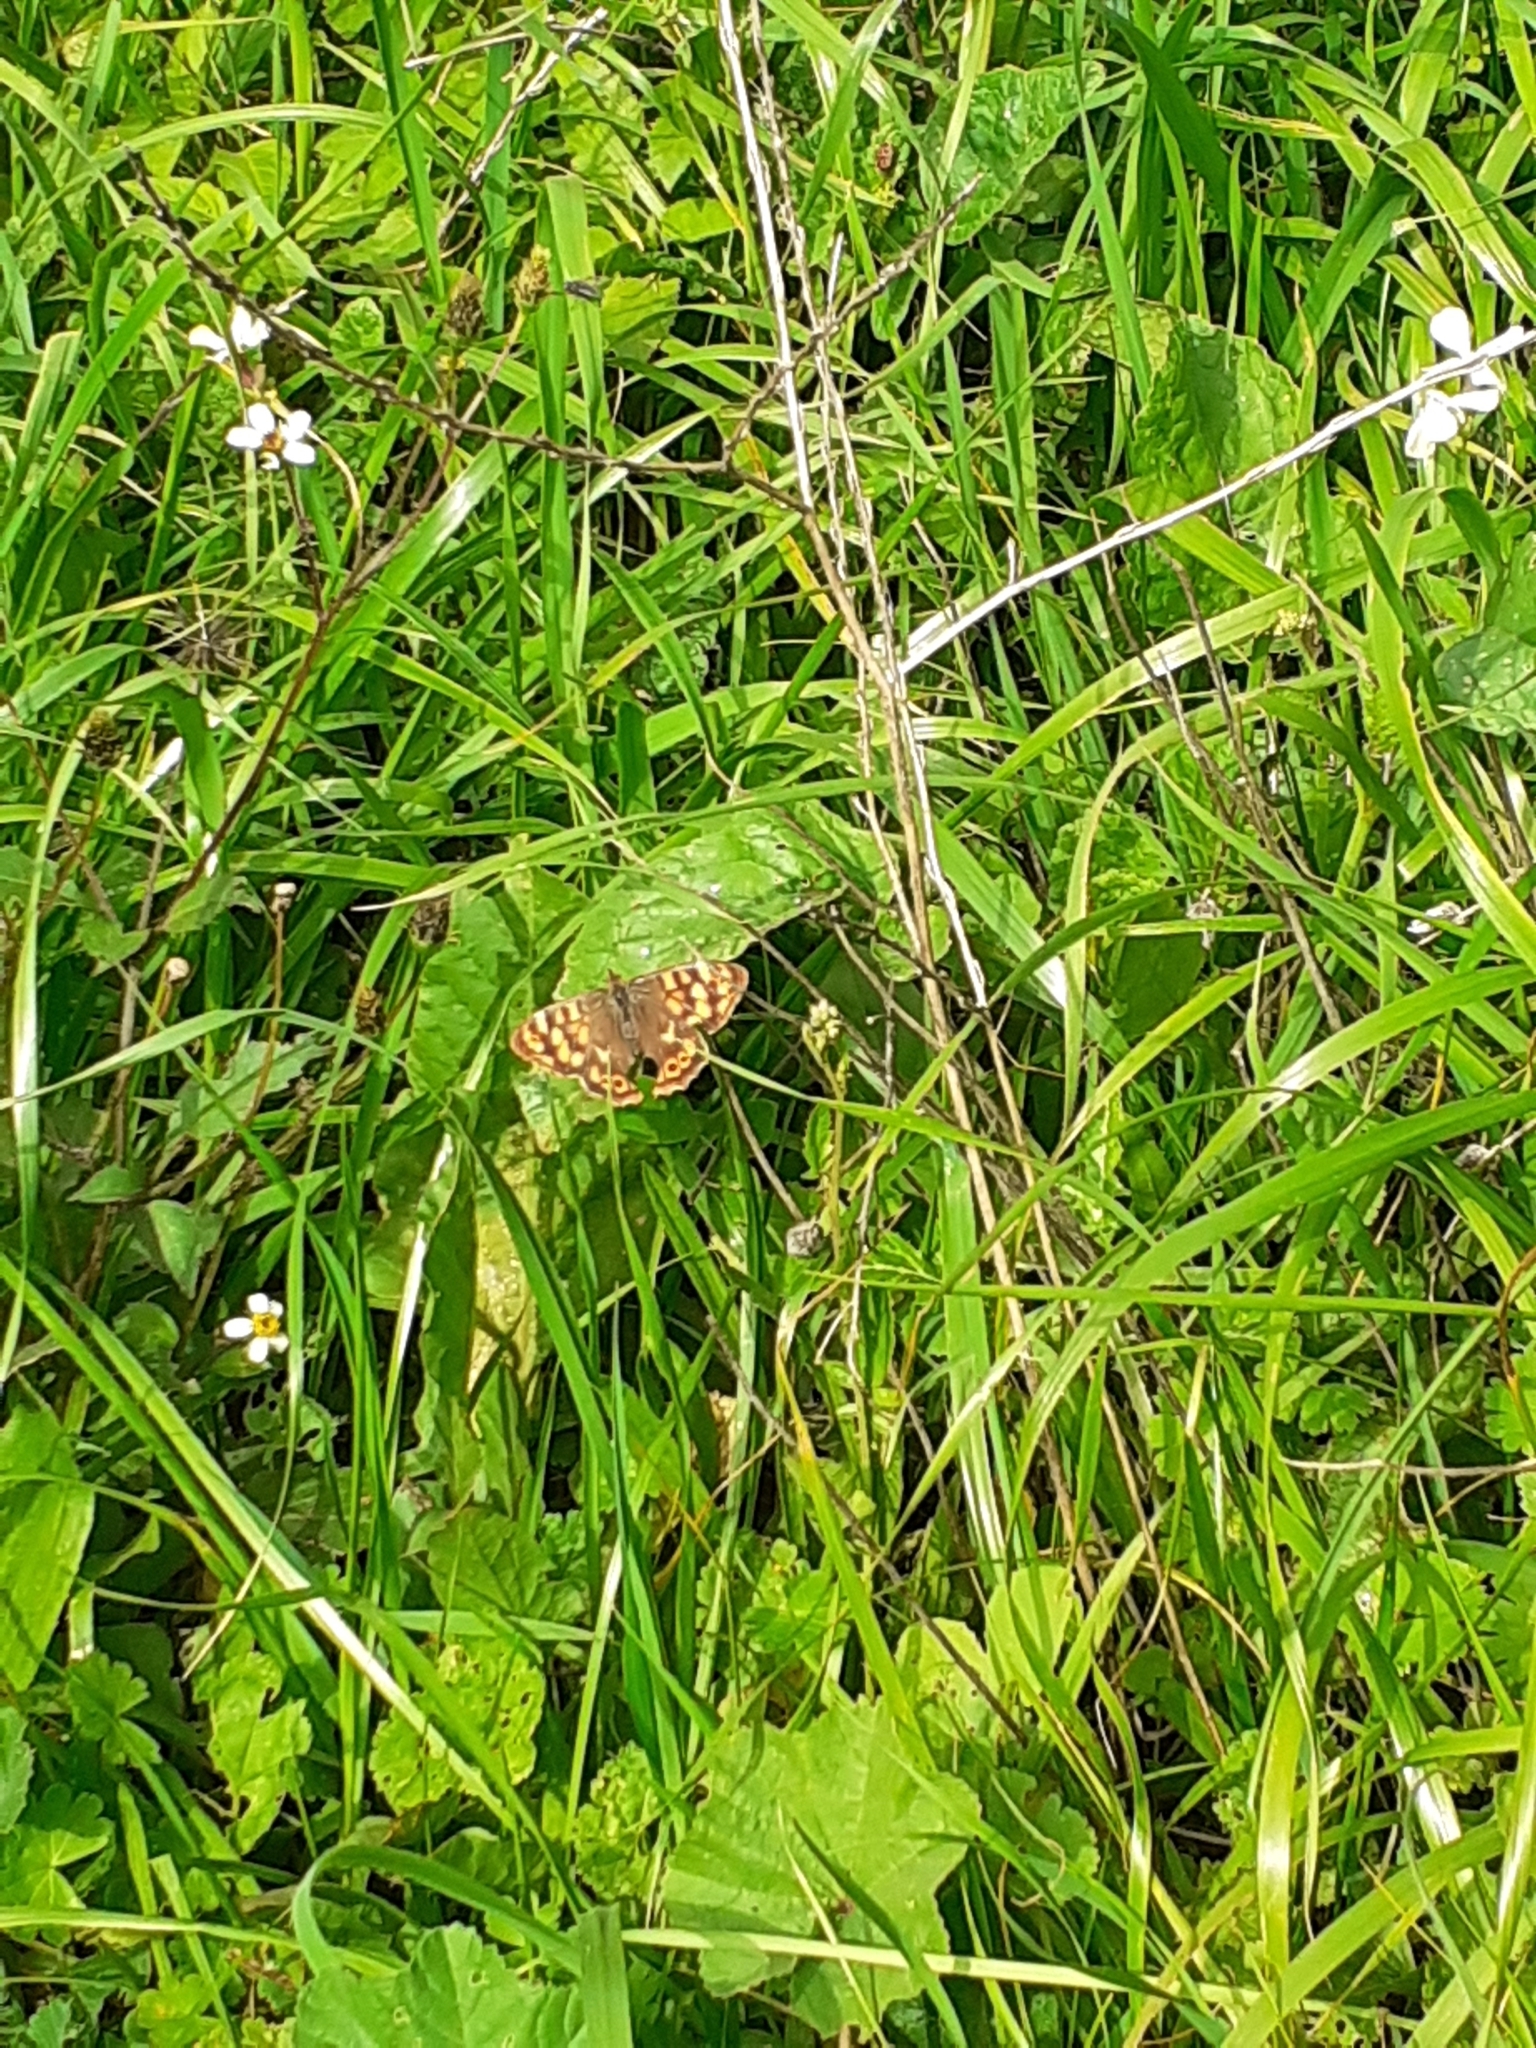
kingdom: Animalia
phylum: Arthropoda
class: Insecta
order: Lepidoptera
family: Nymphalidae
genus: Pararge
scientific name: Pararge aegeria
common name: Speckled wood
